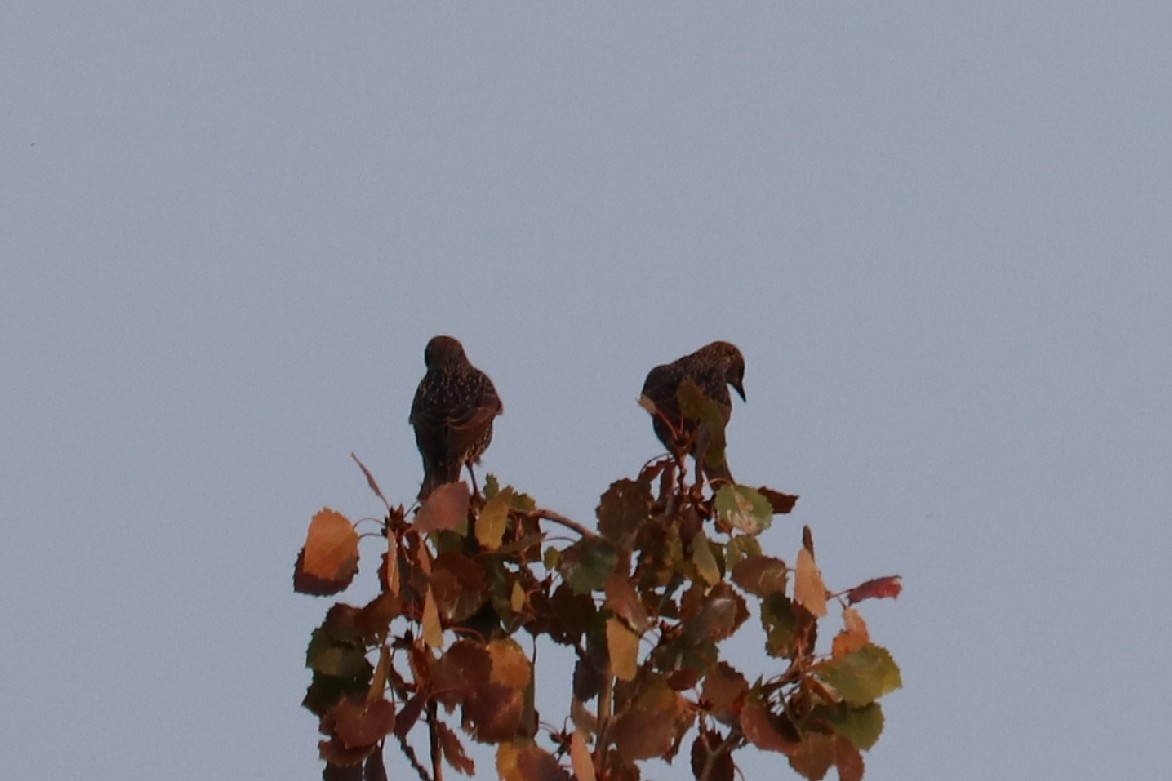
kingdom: Animalia
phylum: Chordata
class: Aves
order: Passeriformes
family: Sturnidae
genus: Sturnus
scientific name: Sturnus vulgaris
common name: Common starling
